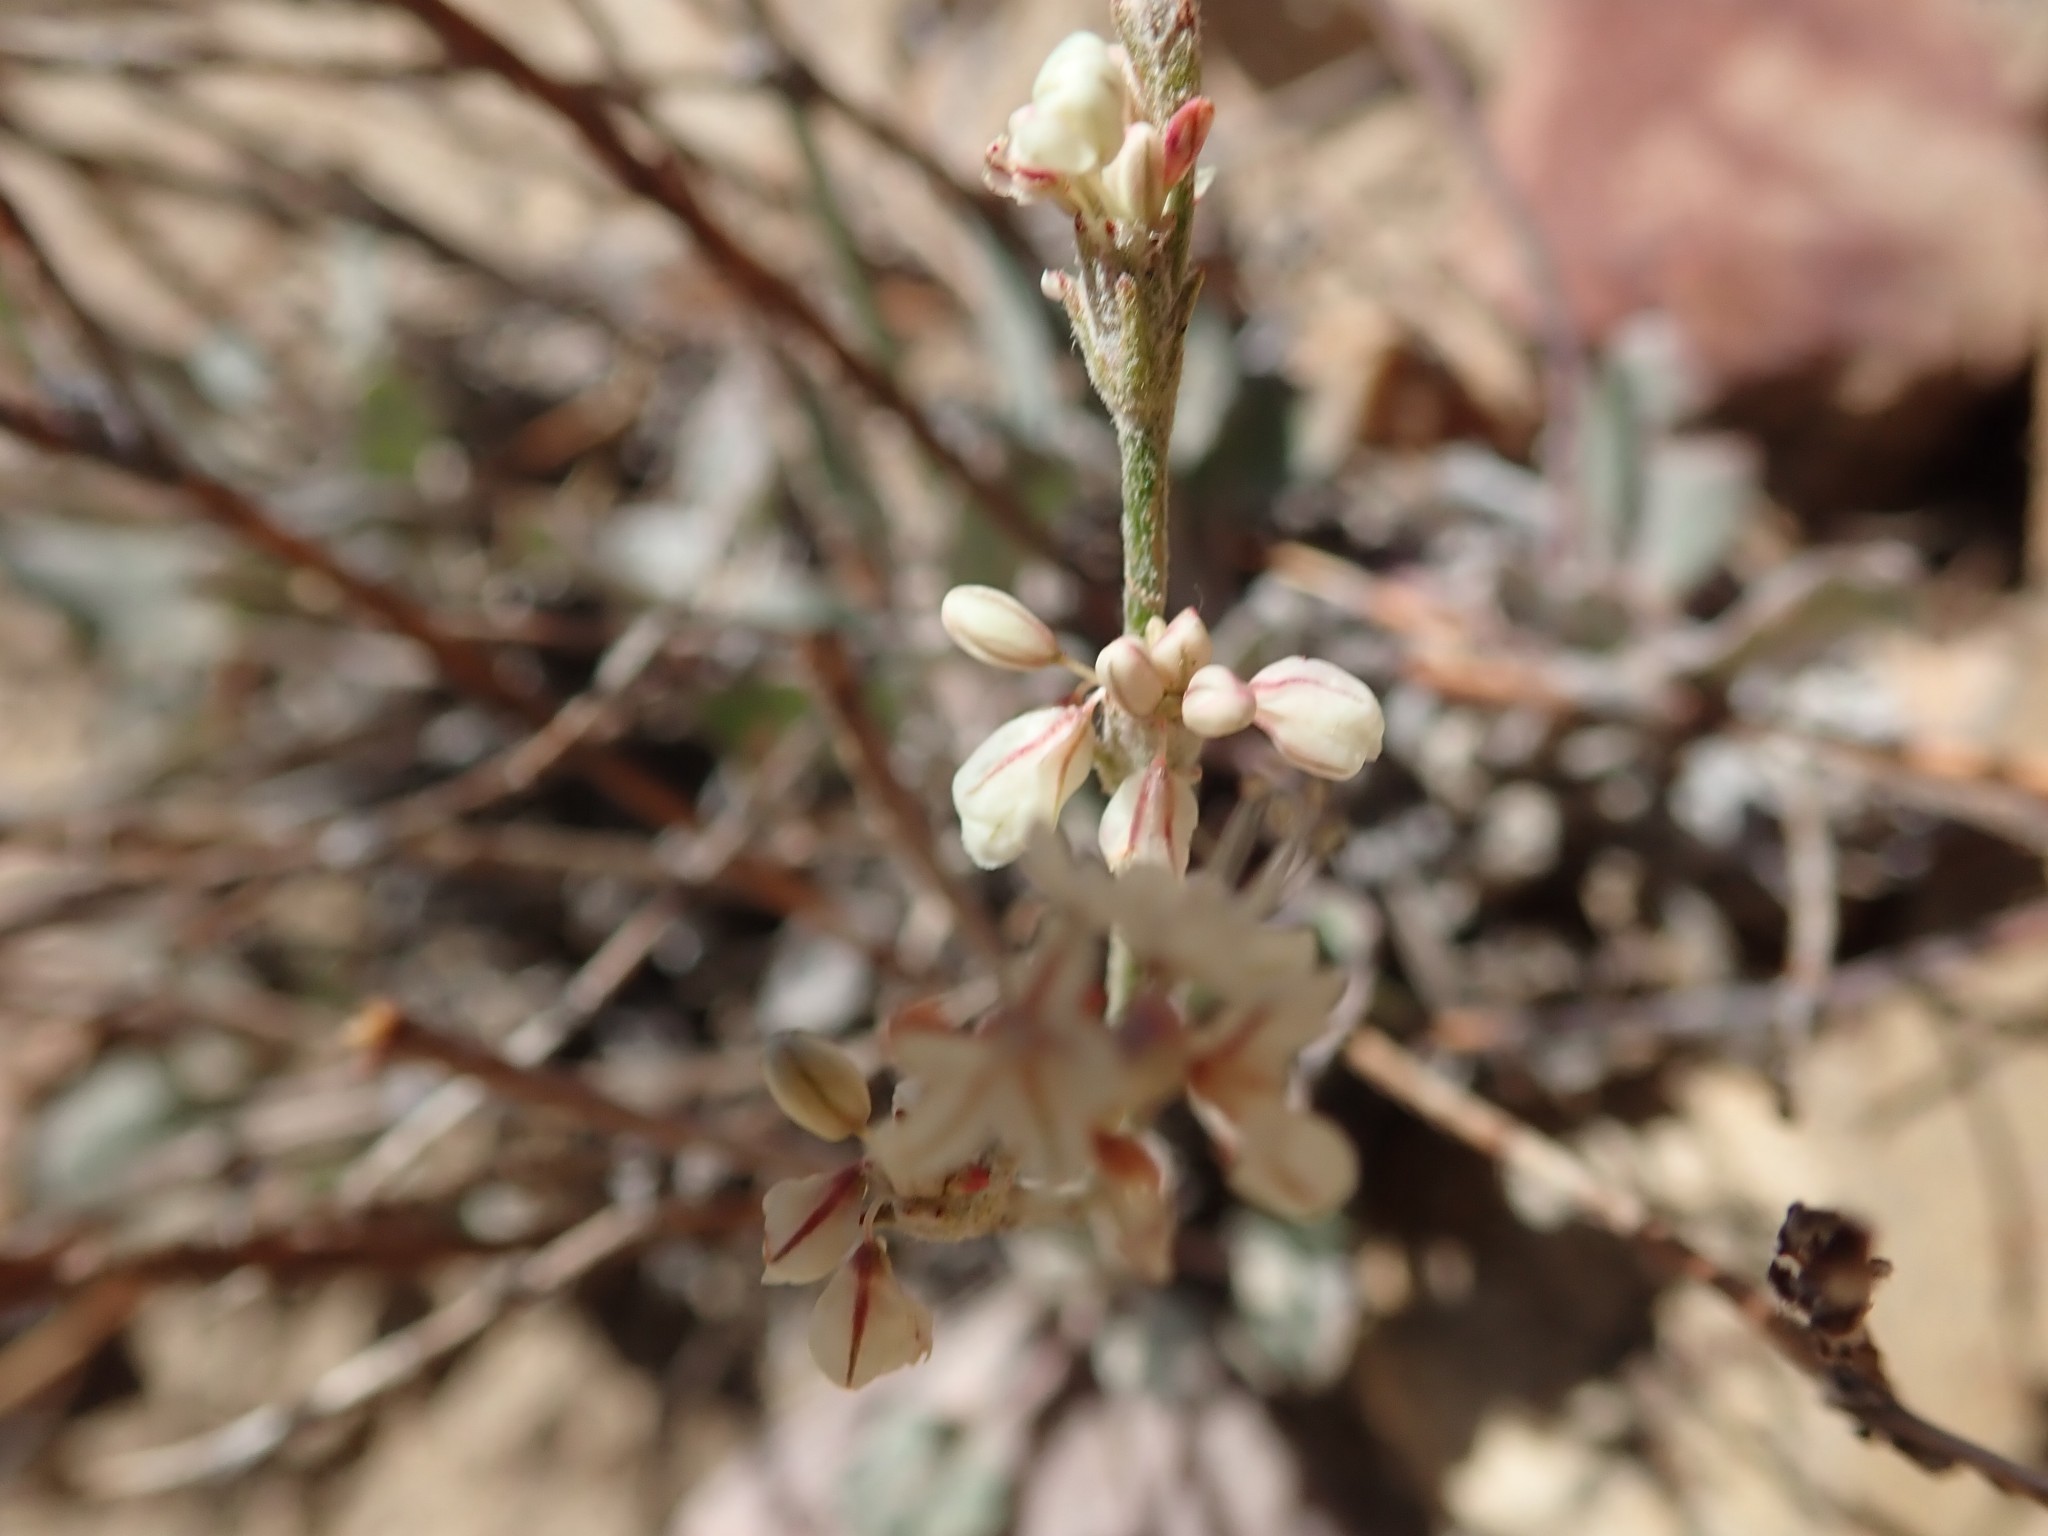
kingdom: Plantae
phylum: Tracheophyta
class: Magnoliopsida
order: Caryophyllales
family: Polygonaceae
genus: Eriogonum
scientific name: Eriogonum rupinum
